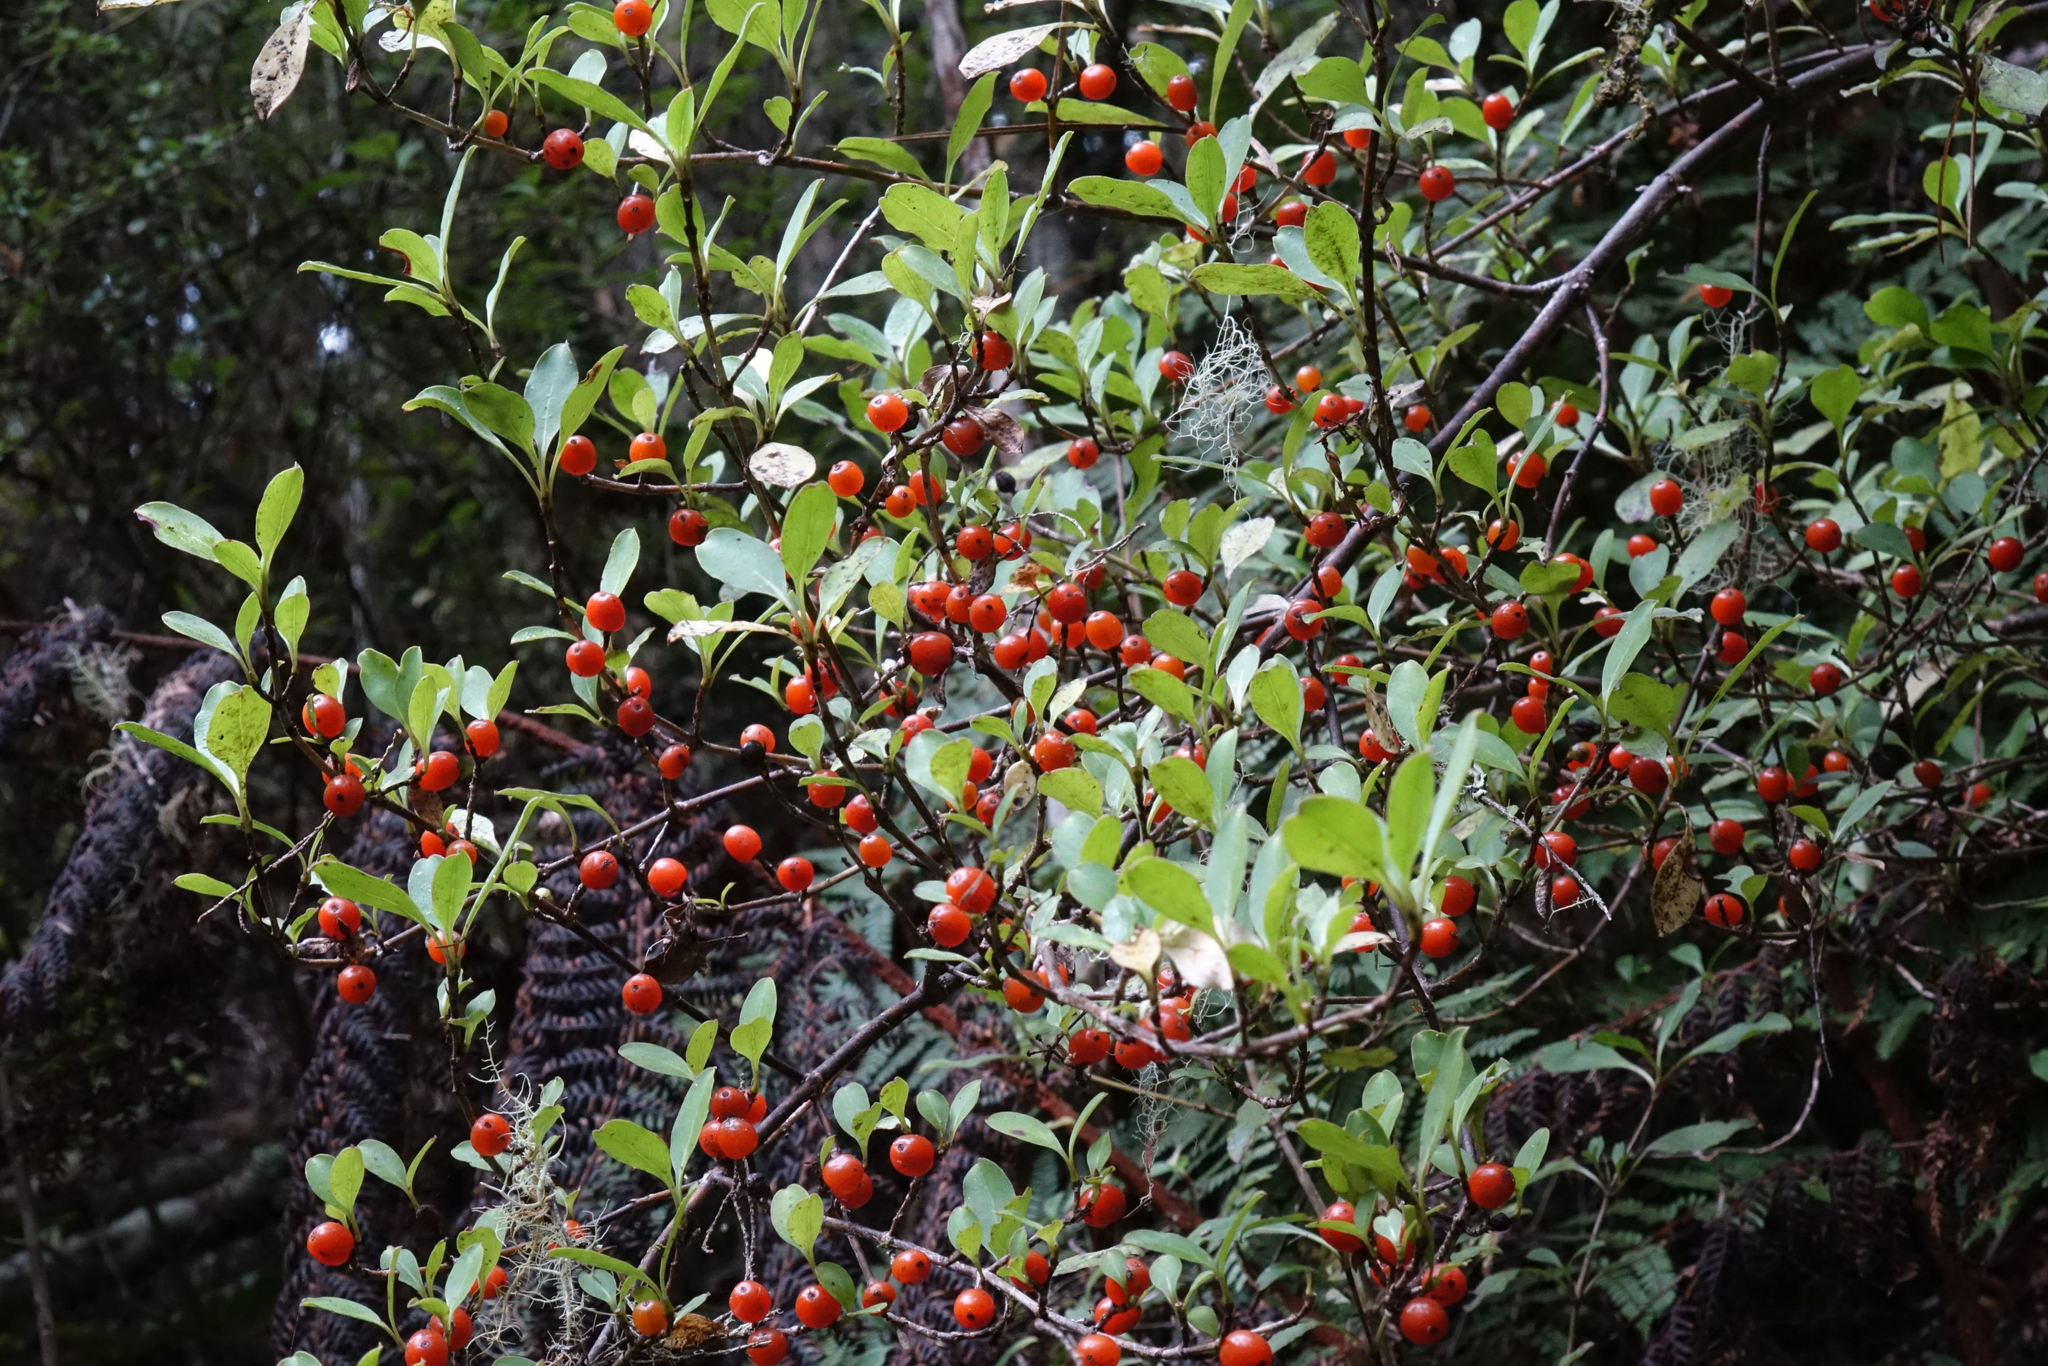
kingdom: Plantae
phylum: Tracheophyta
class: Magnoliopsida
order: Gentianales
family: Rubiaceae
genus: Coprosma
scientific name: Coprosma foetidissima
